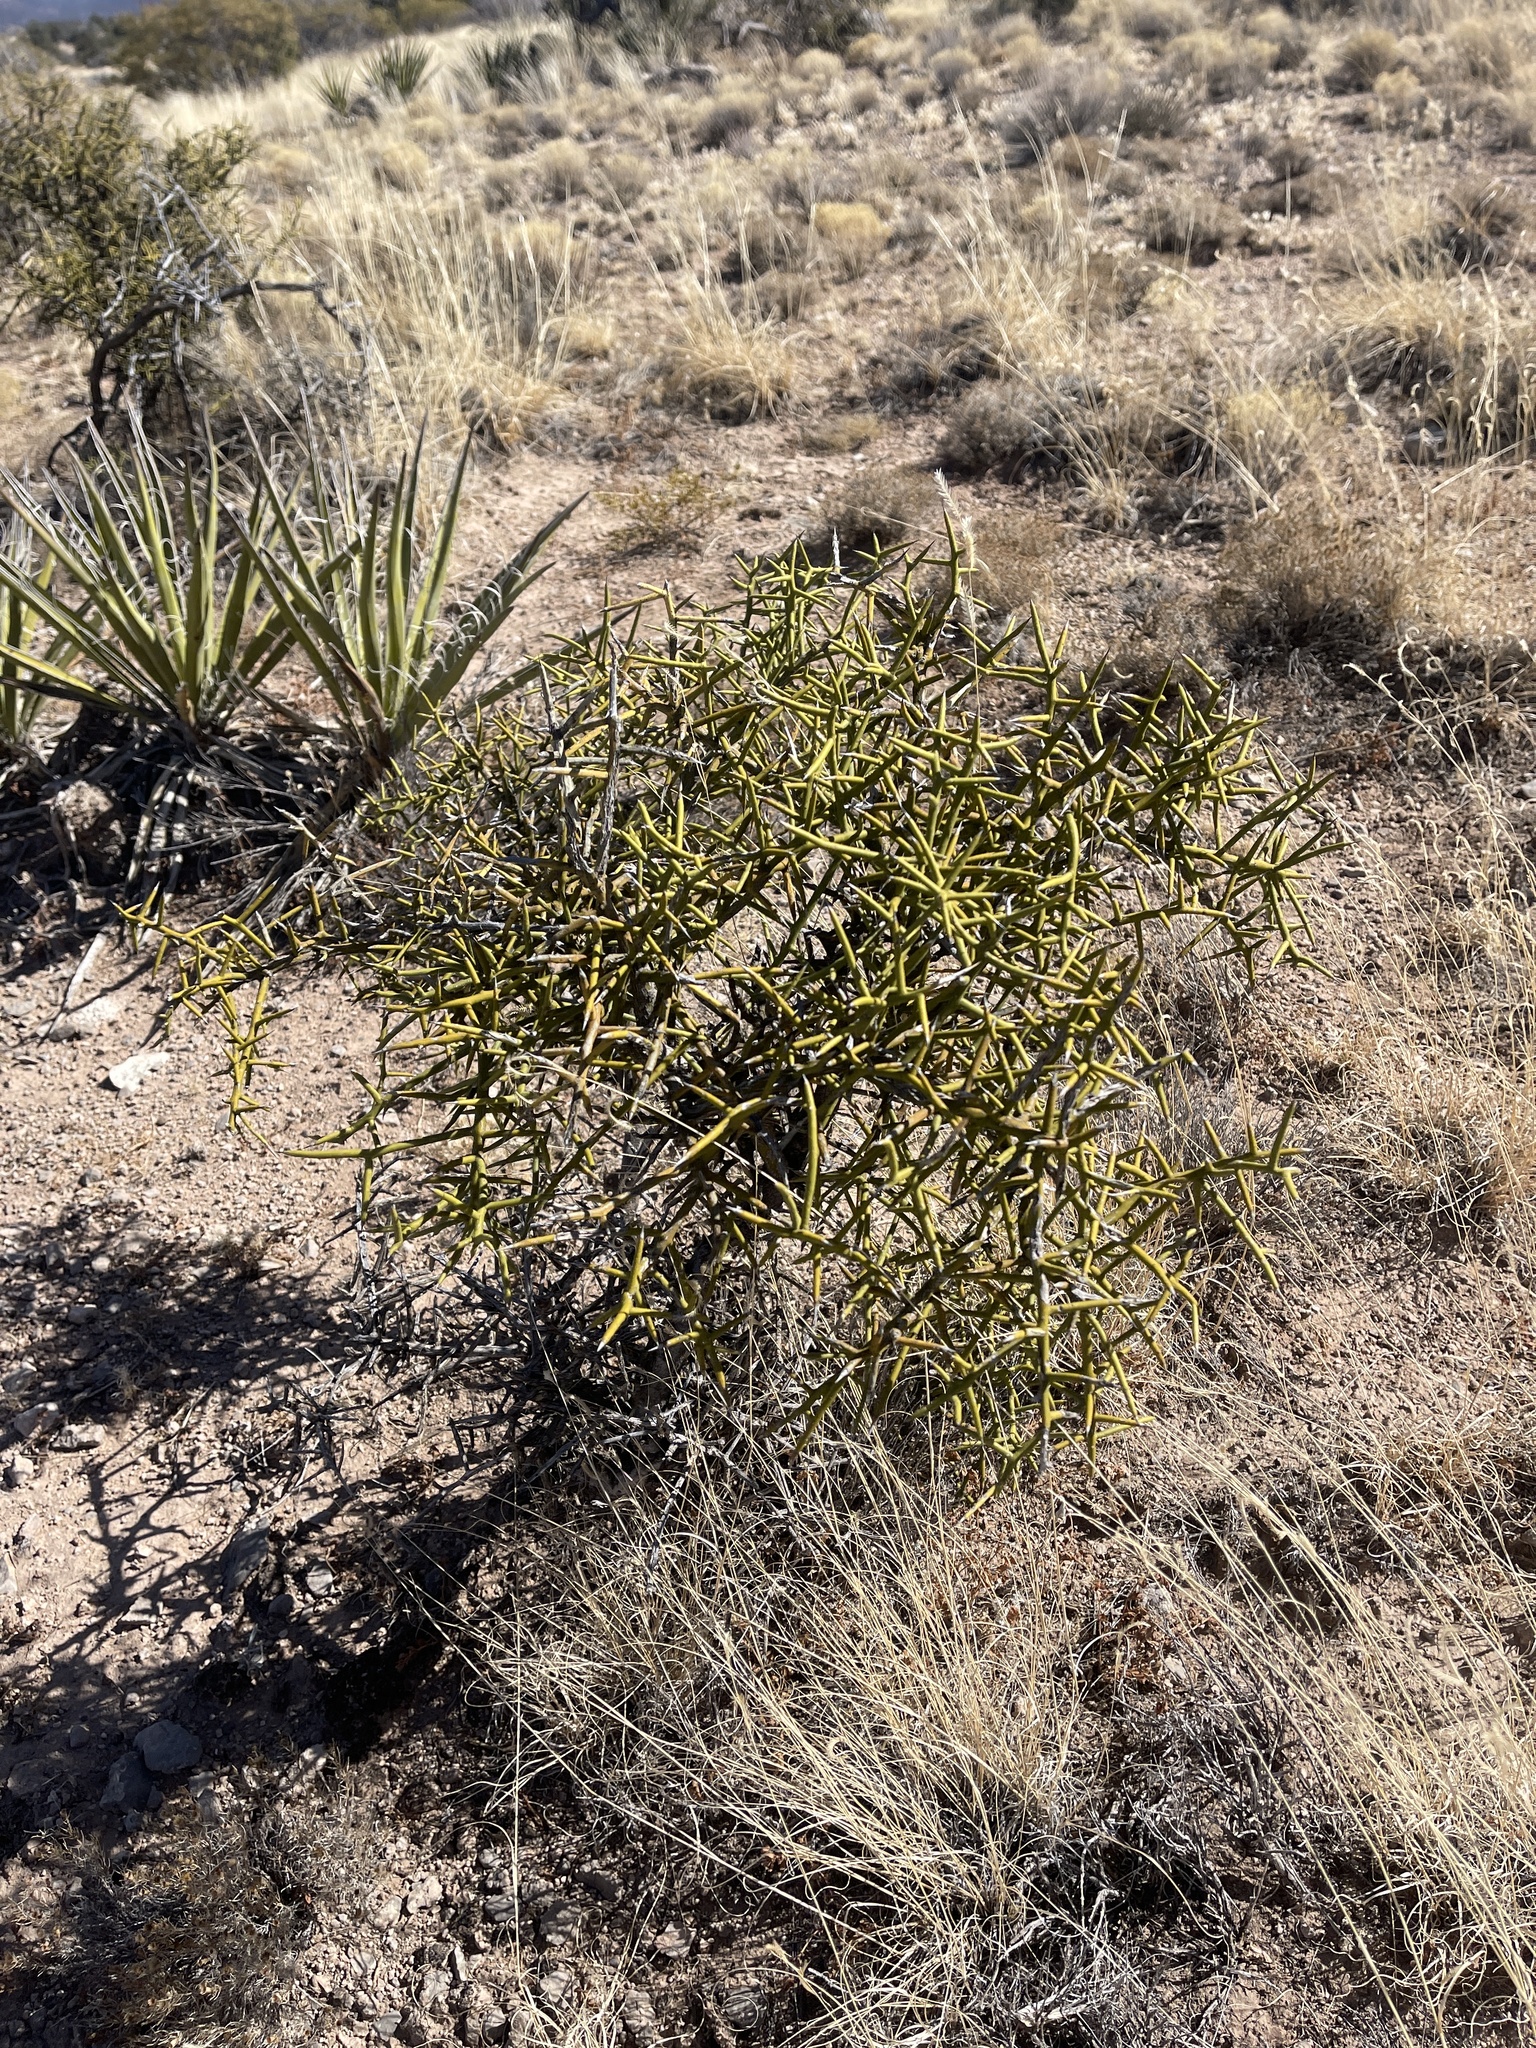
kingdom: Plantae
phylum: Tracheophyta
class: Magnoliopsida
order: Brassicales
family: Koeberliniaceae
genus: Koeberlinia
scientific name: Koeberlinia spinosa
